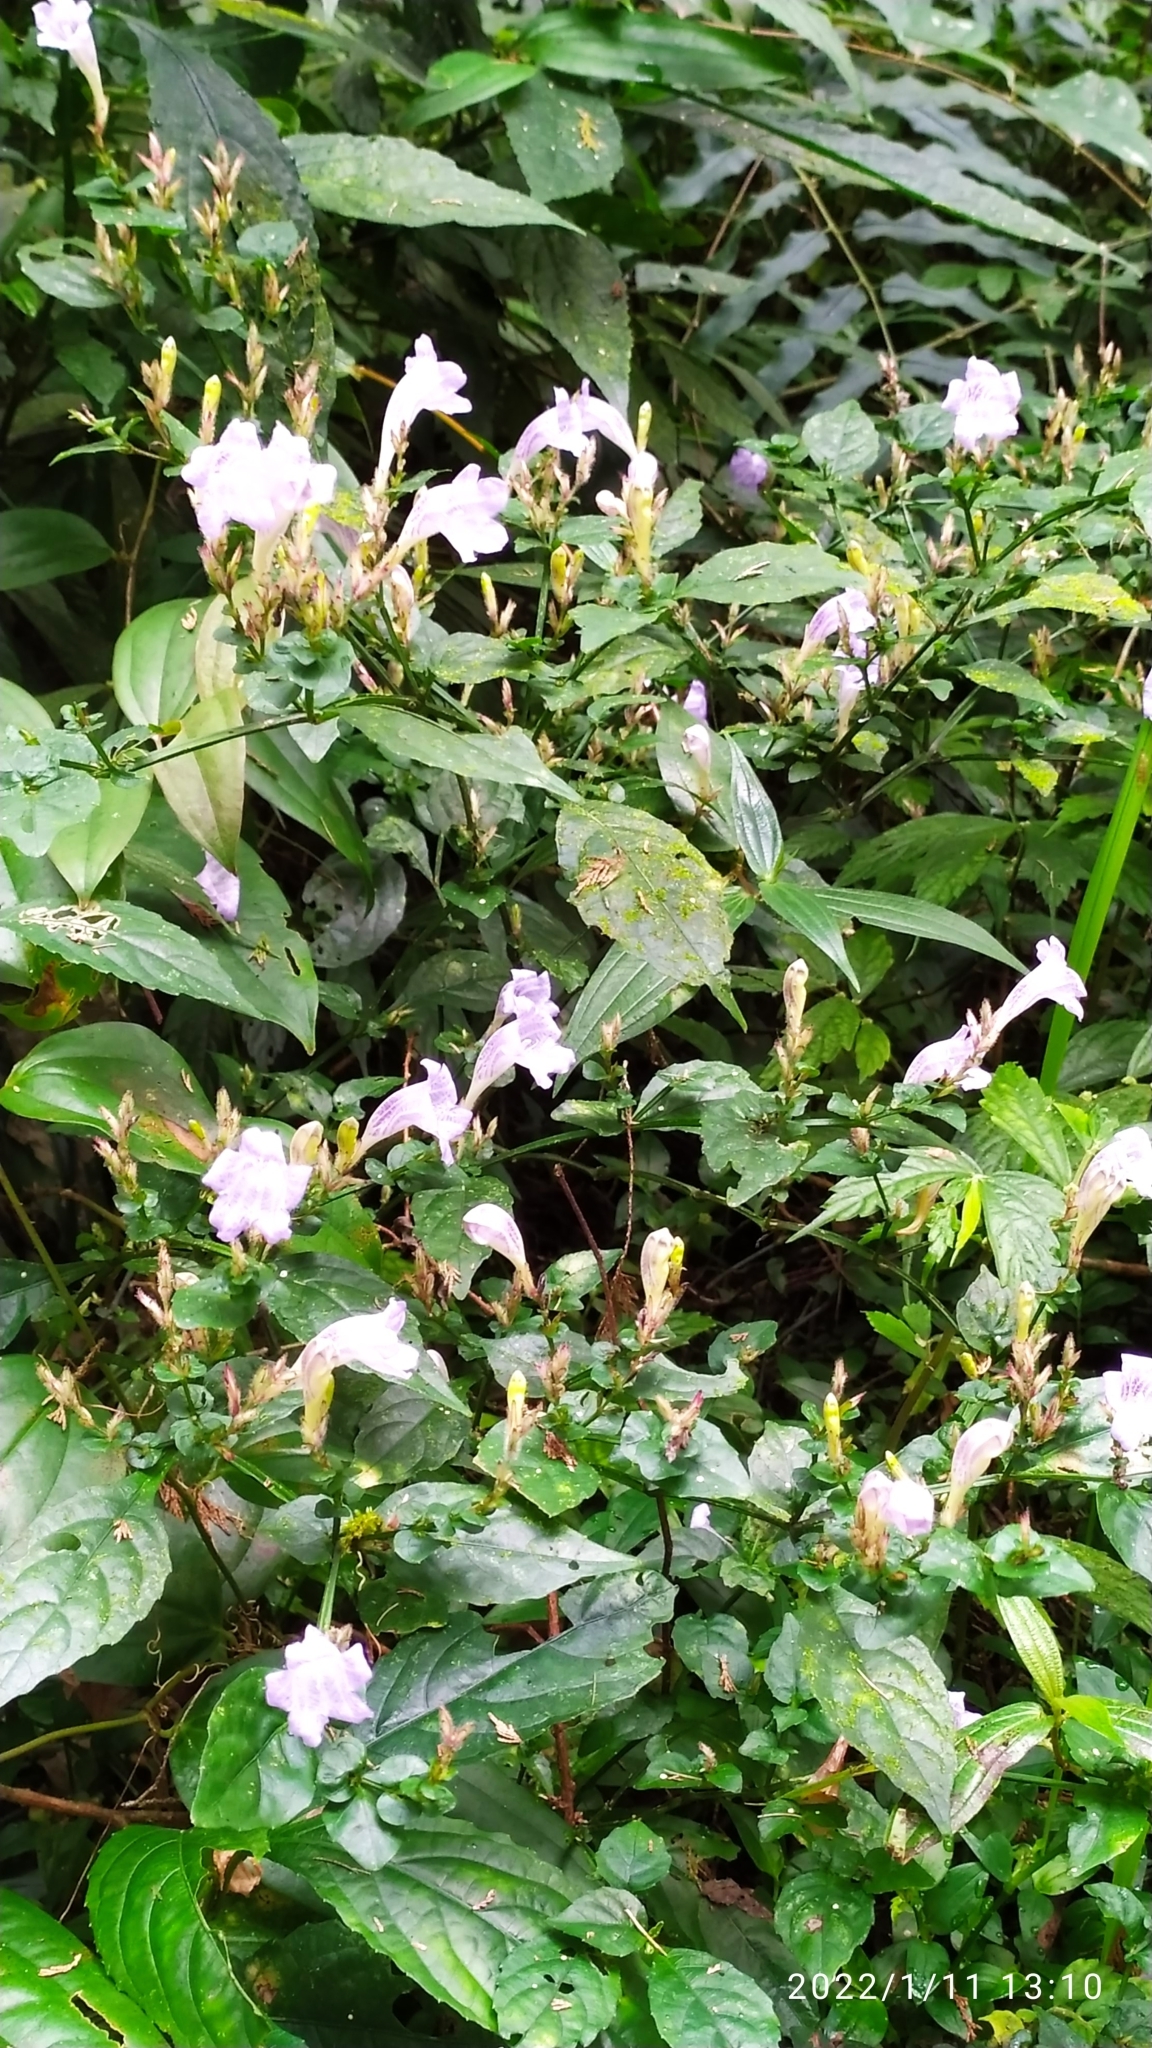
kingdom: Plantae
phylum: Tracheophyta
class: Magnoliopsida
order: Lamiales
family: Acanthaceae
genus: Strobilanthes
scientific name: Strobilanthes flexicaulis
